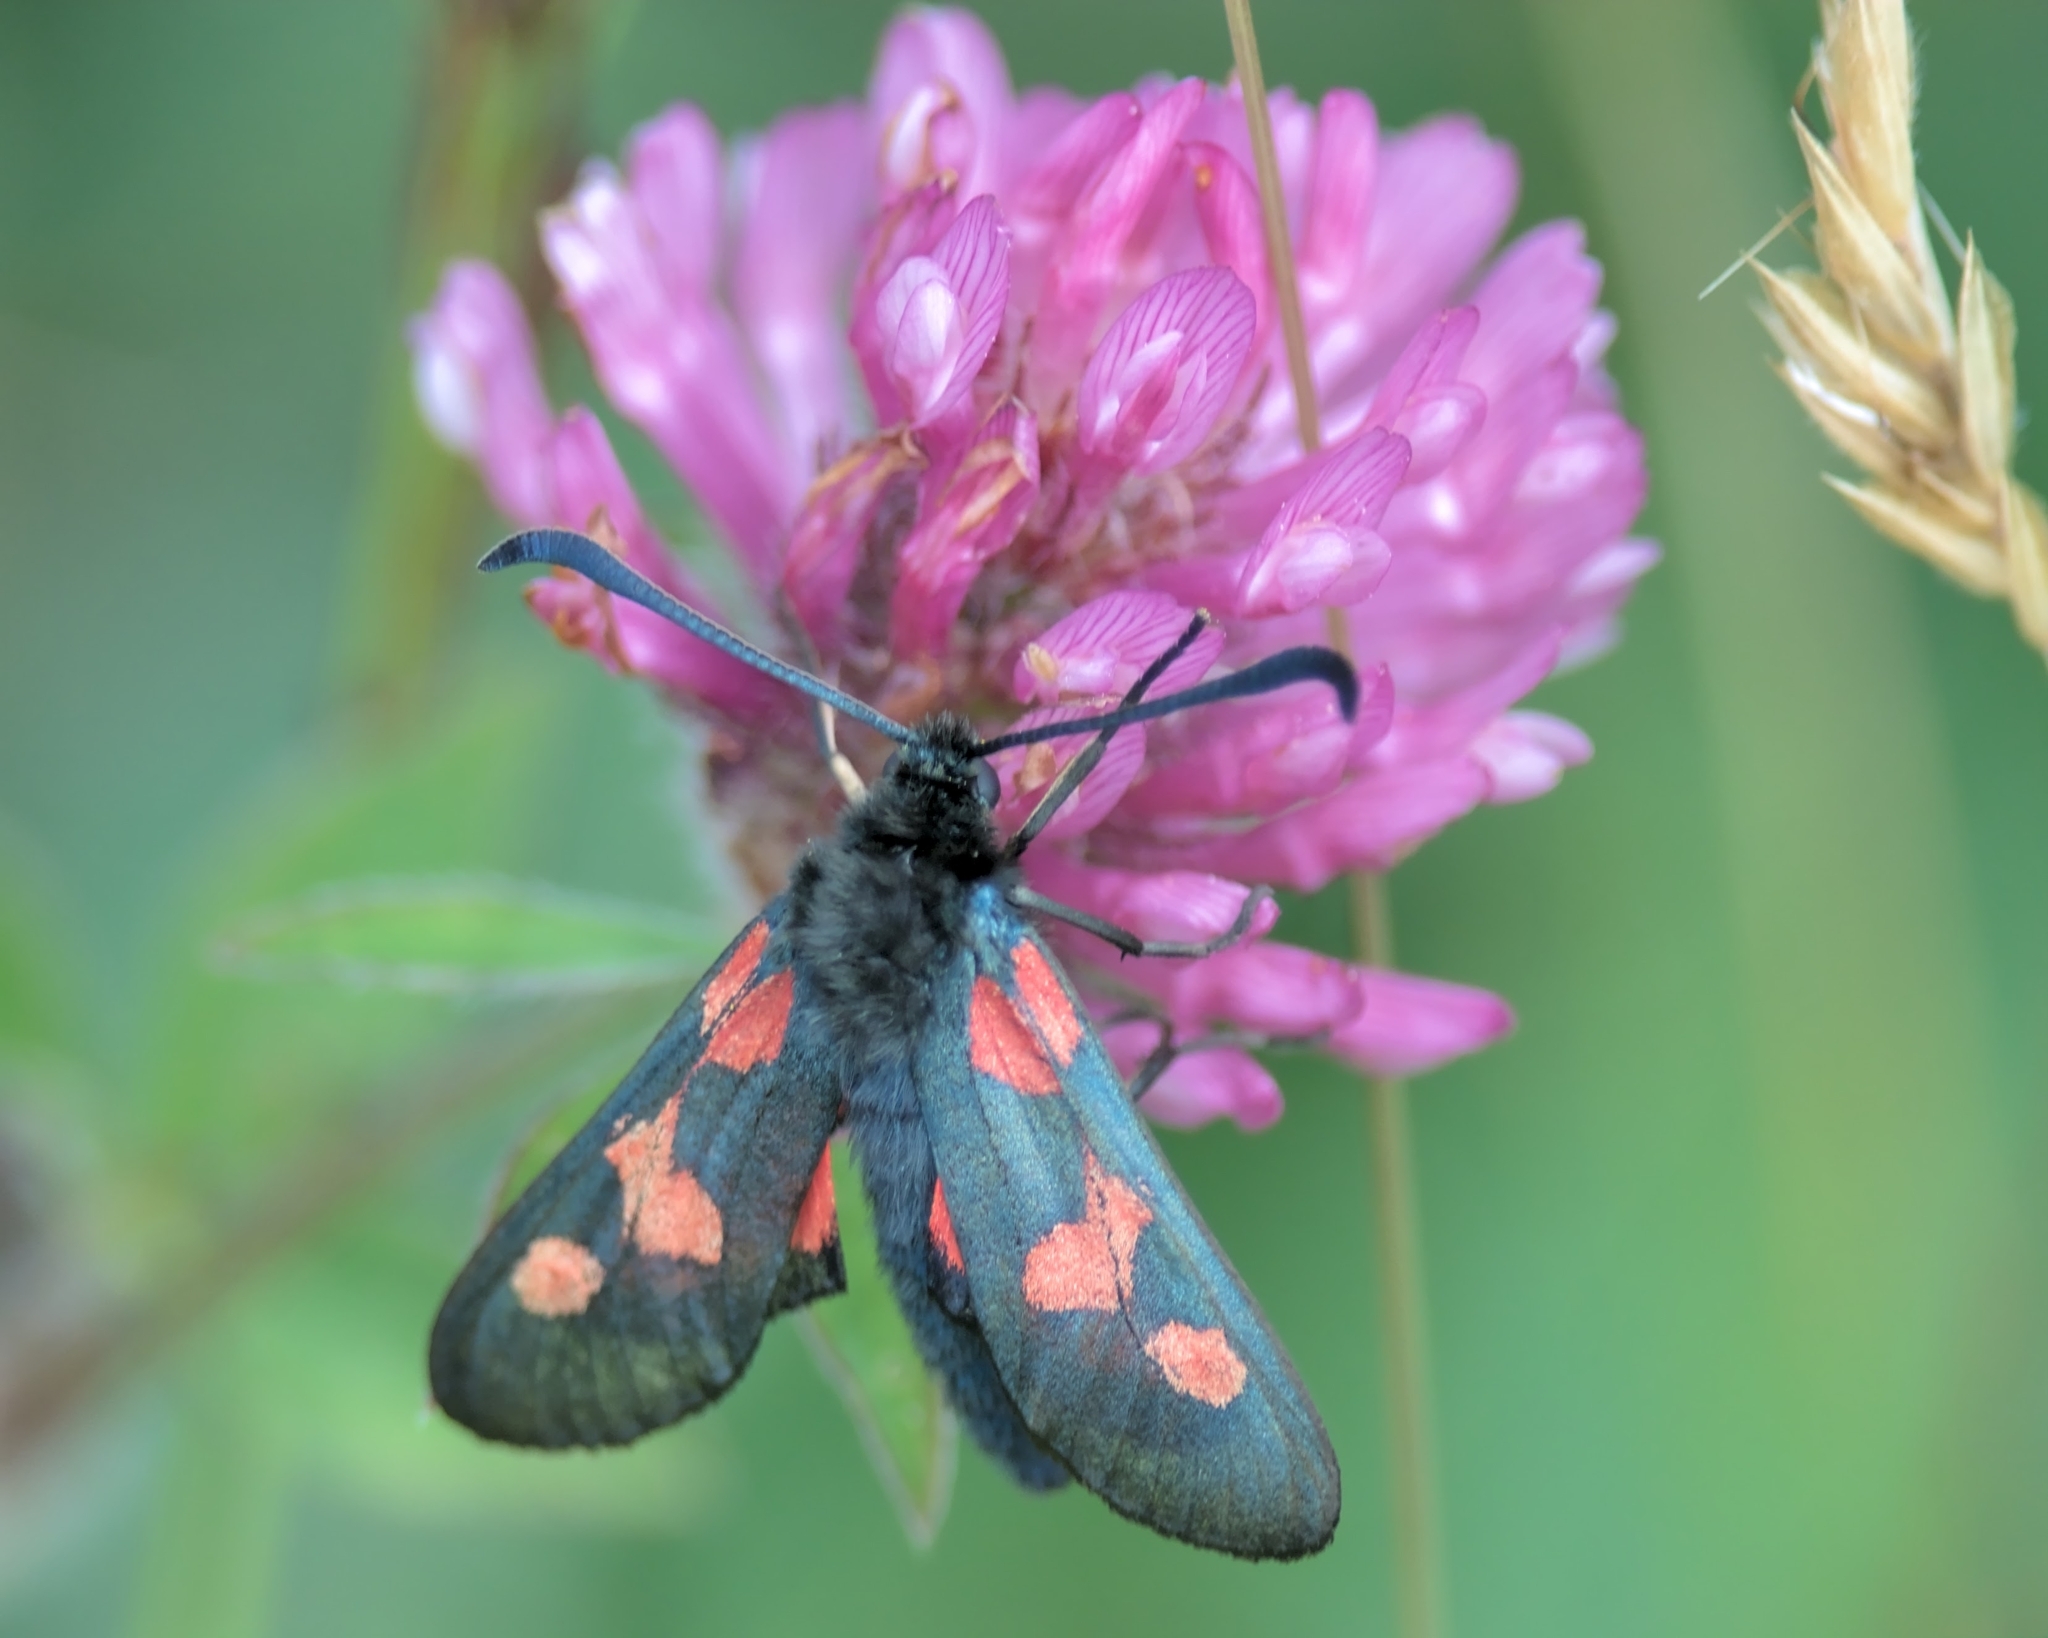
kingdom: Animalia
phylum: Arthropoda
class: Insecta
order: Lepidoptera
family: Zygaenidae
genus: Zygaena
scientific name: Zygaena trifolii
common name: Five-spot burnet
